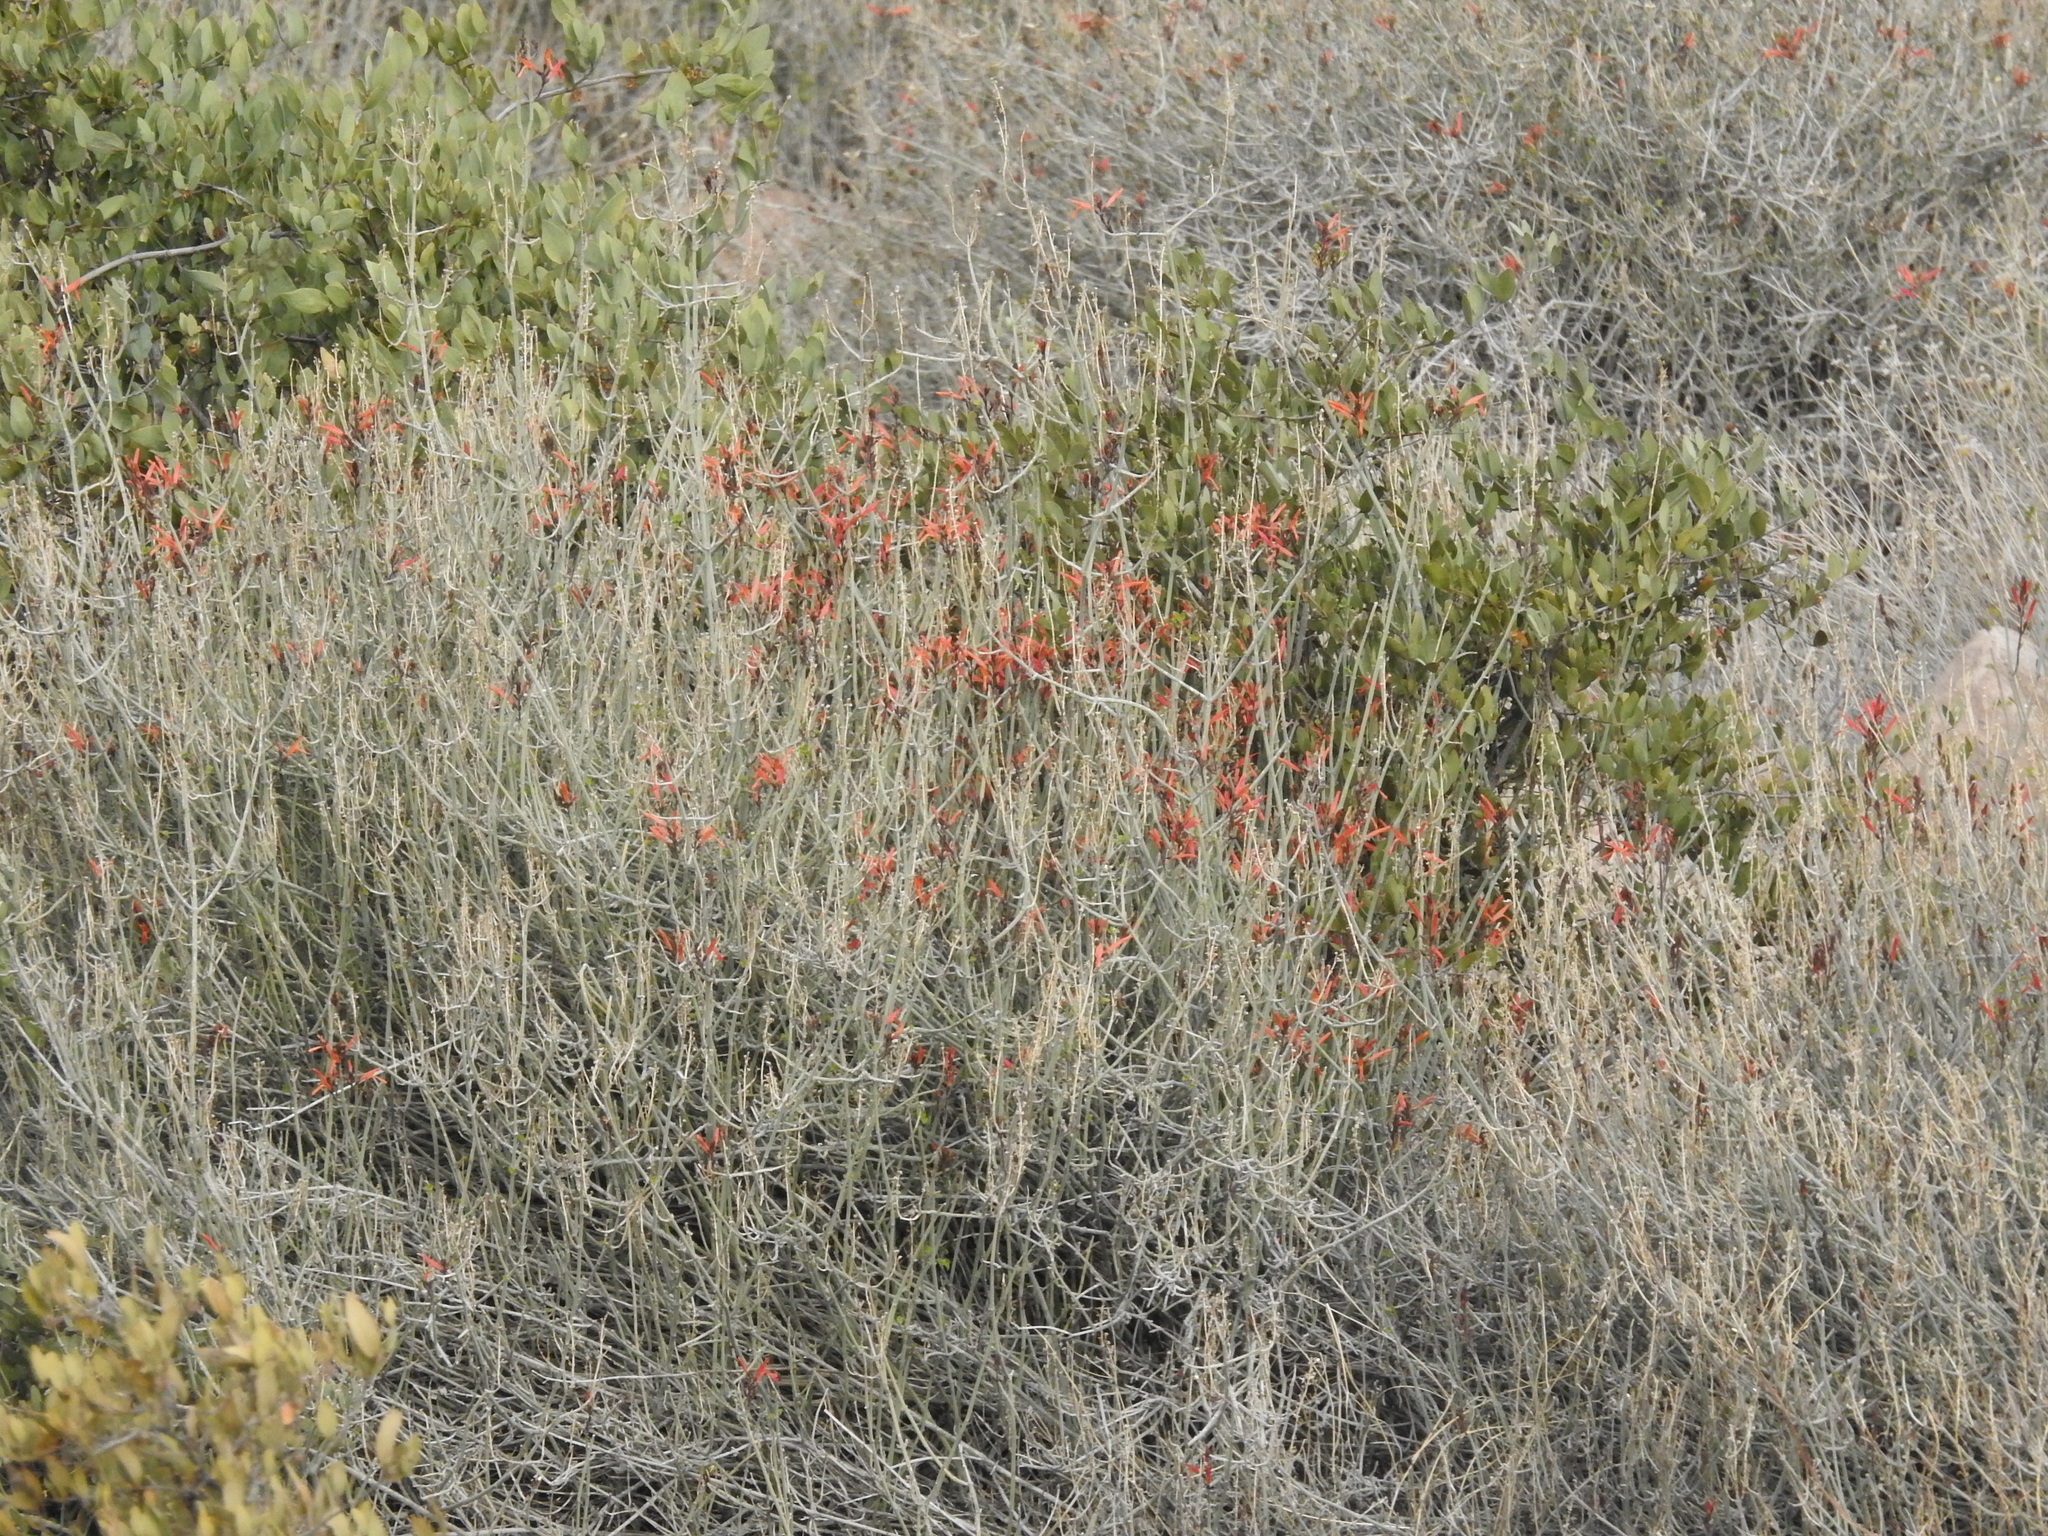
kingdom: Plantae
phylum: Tracheophyta
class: Magnoliopsida
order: Lamiales
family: Acanthaceae
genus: Justicia
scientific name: Justicia californica
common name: Chuparosa-honeysuckle
